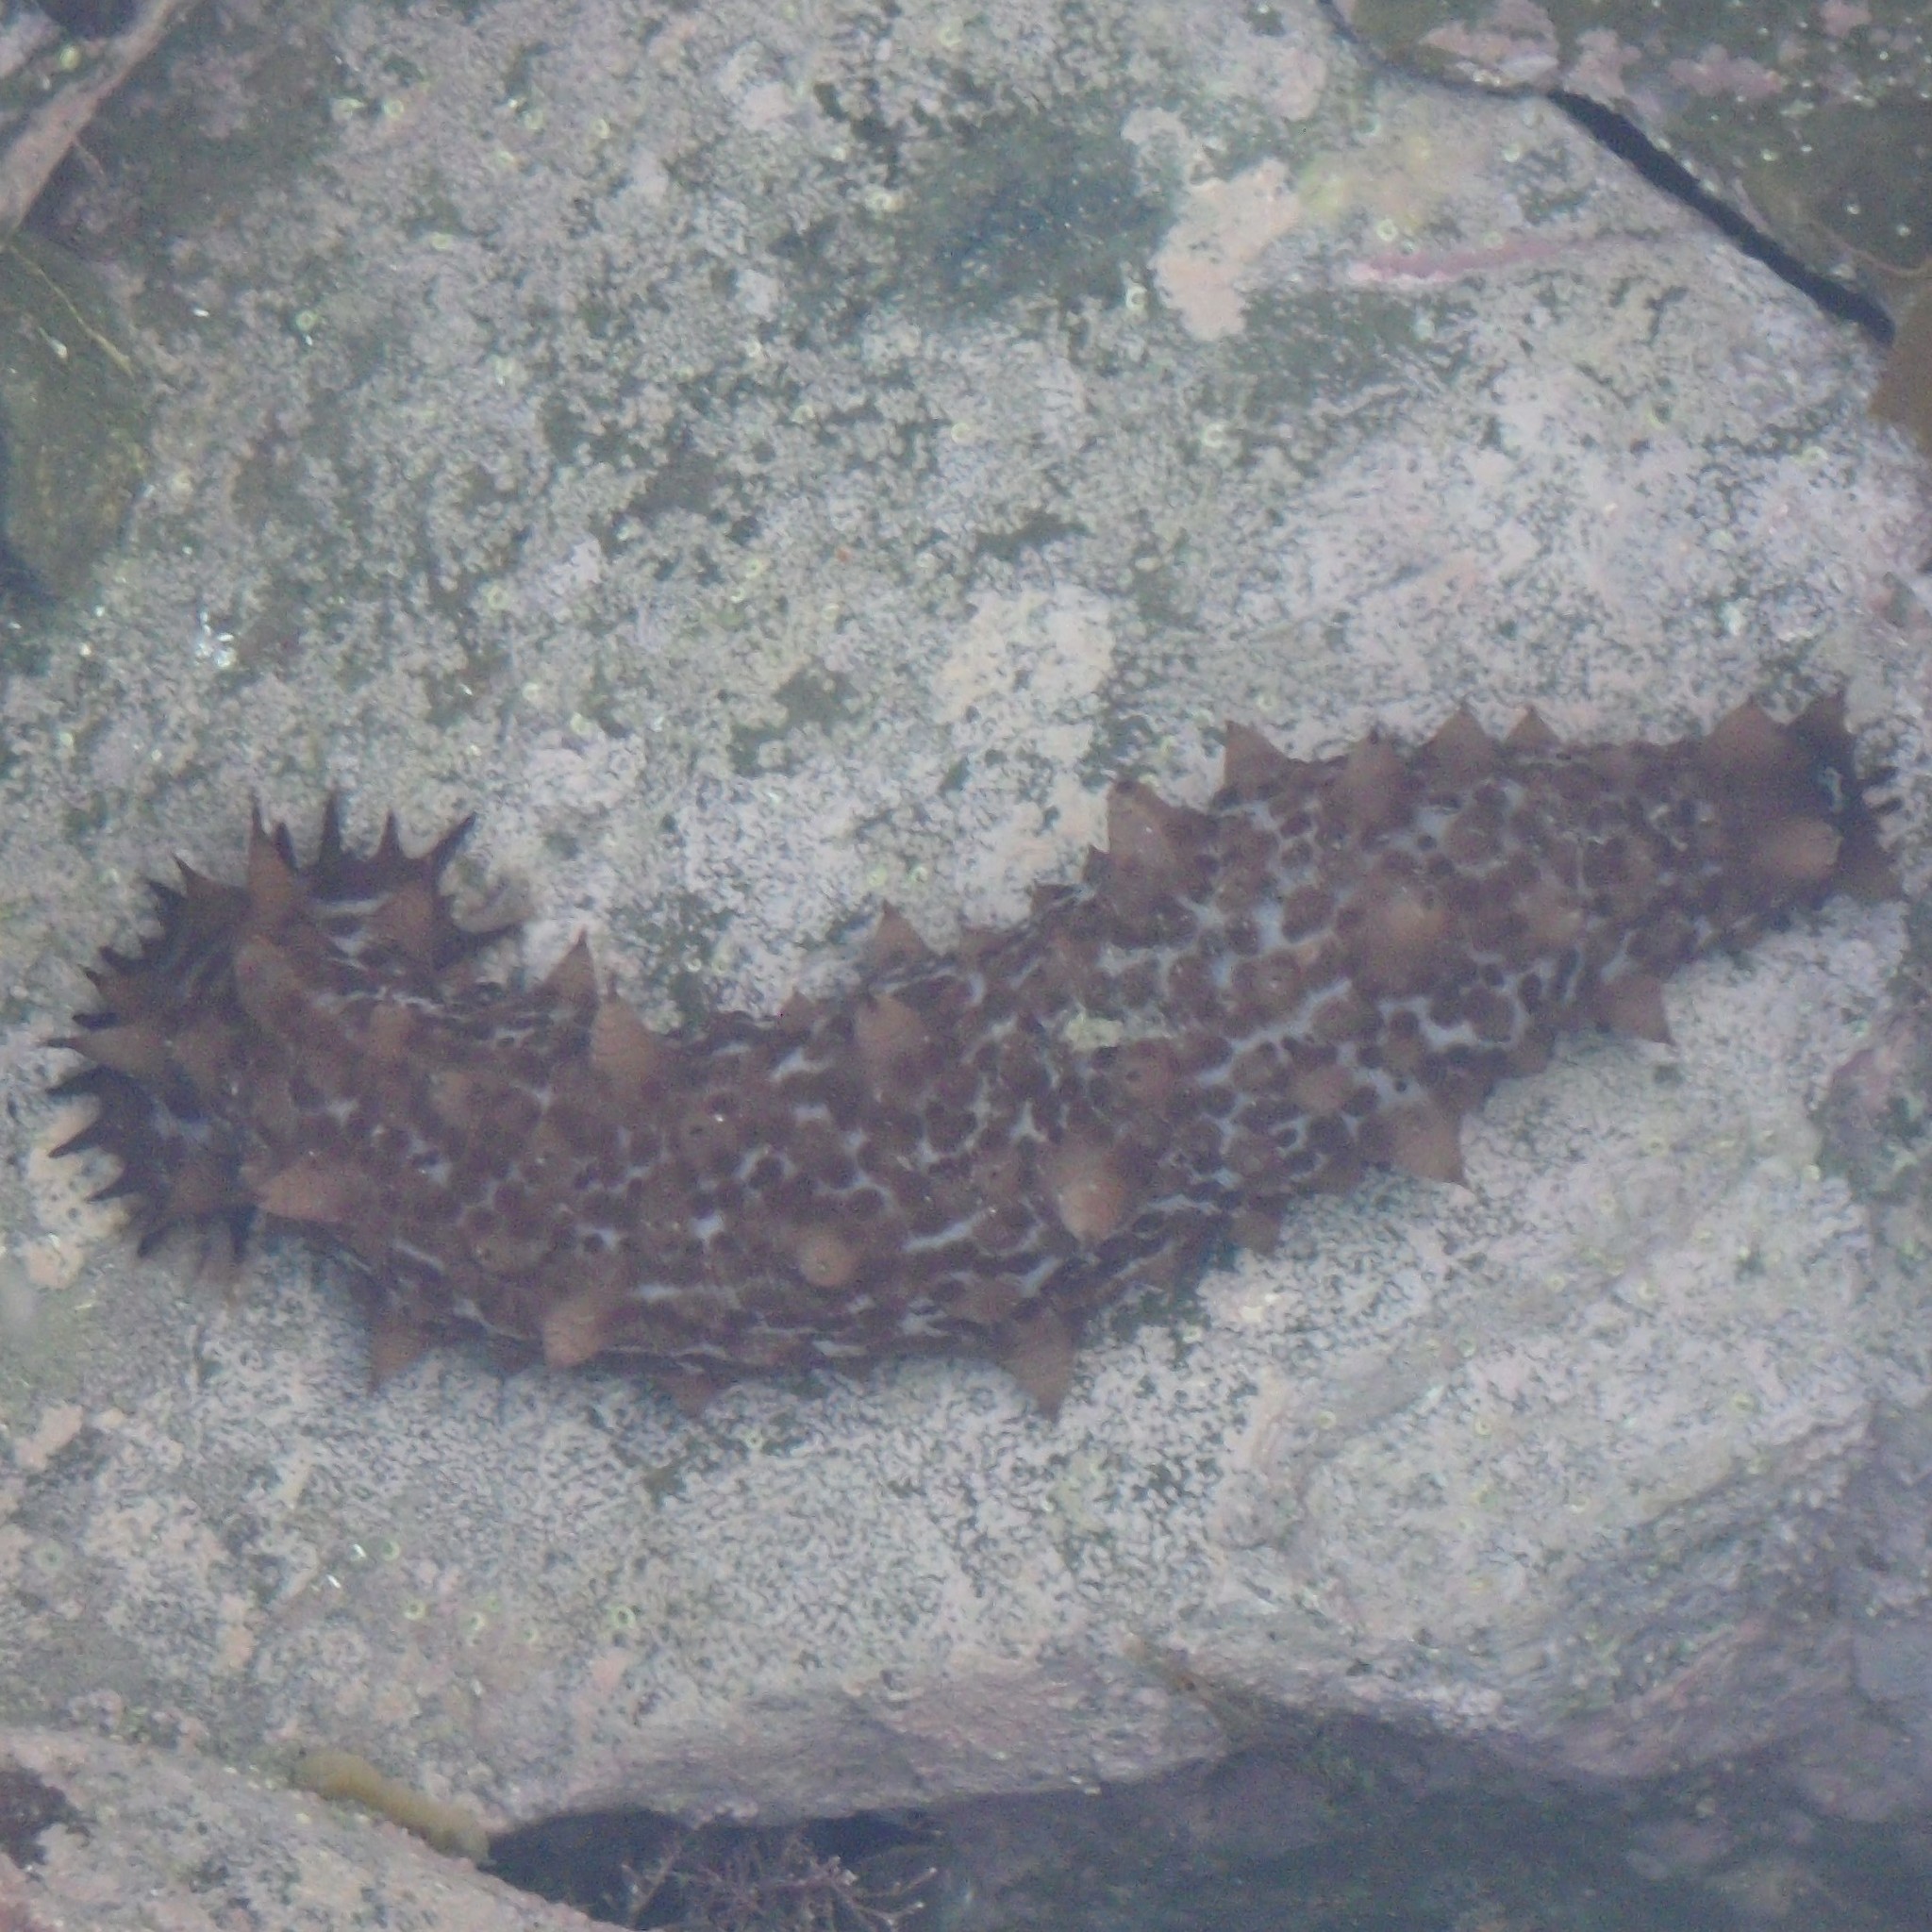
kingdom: Animalia
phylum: Echinodermata
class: Holothuroidea
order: Synallactida
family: Stichopodidae
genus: Australostichopus
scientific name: Australostichopus mollis
